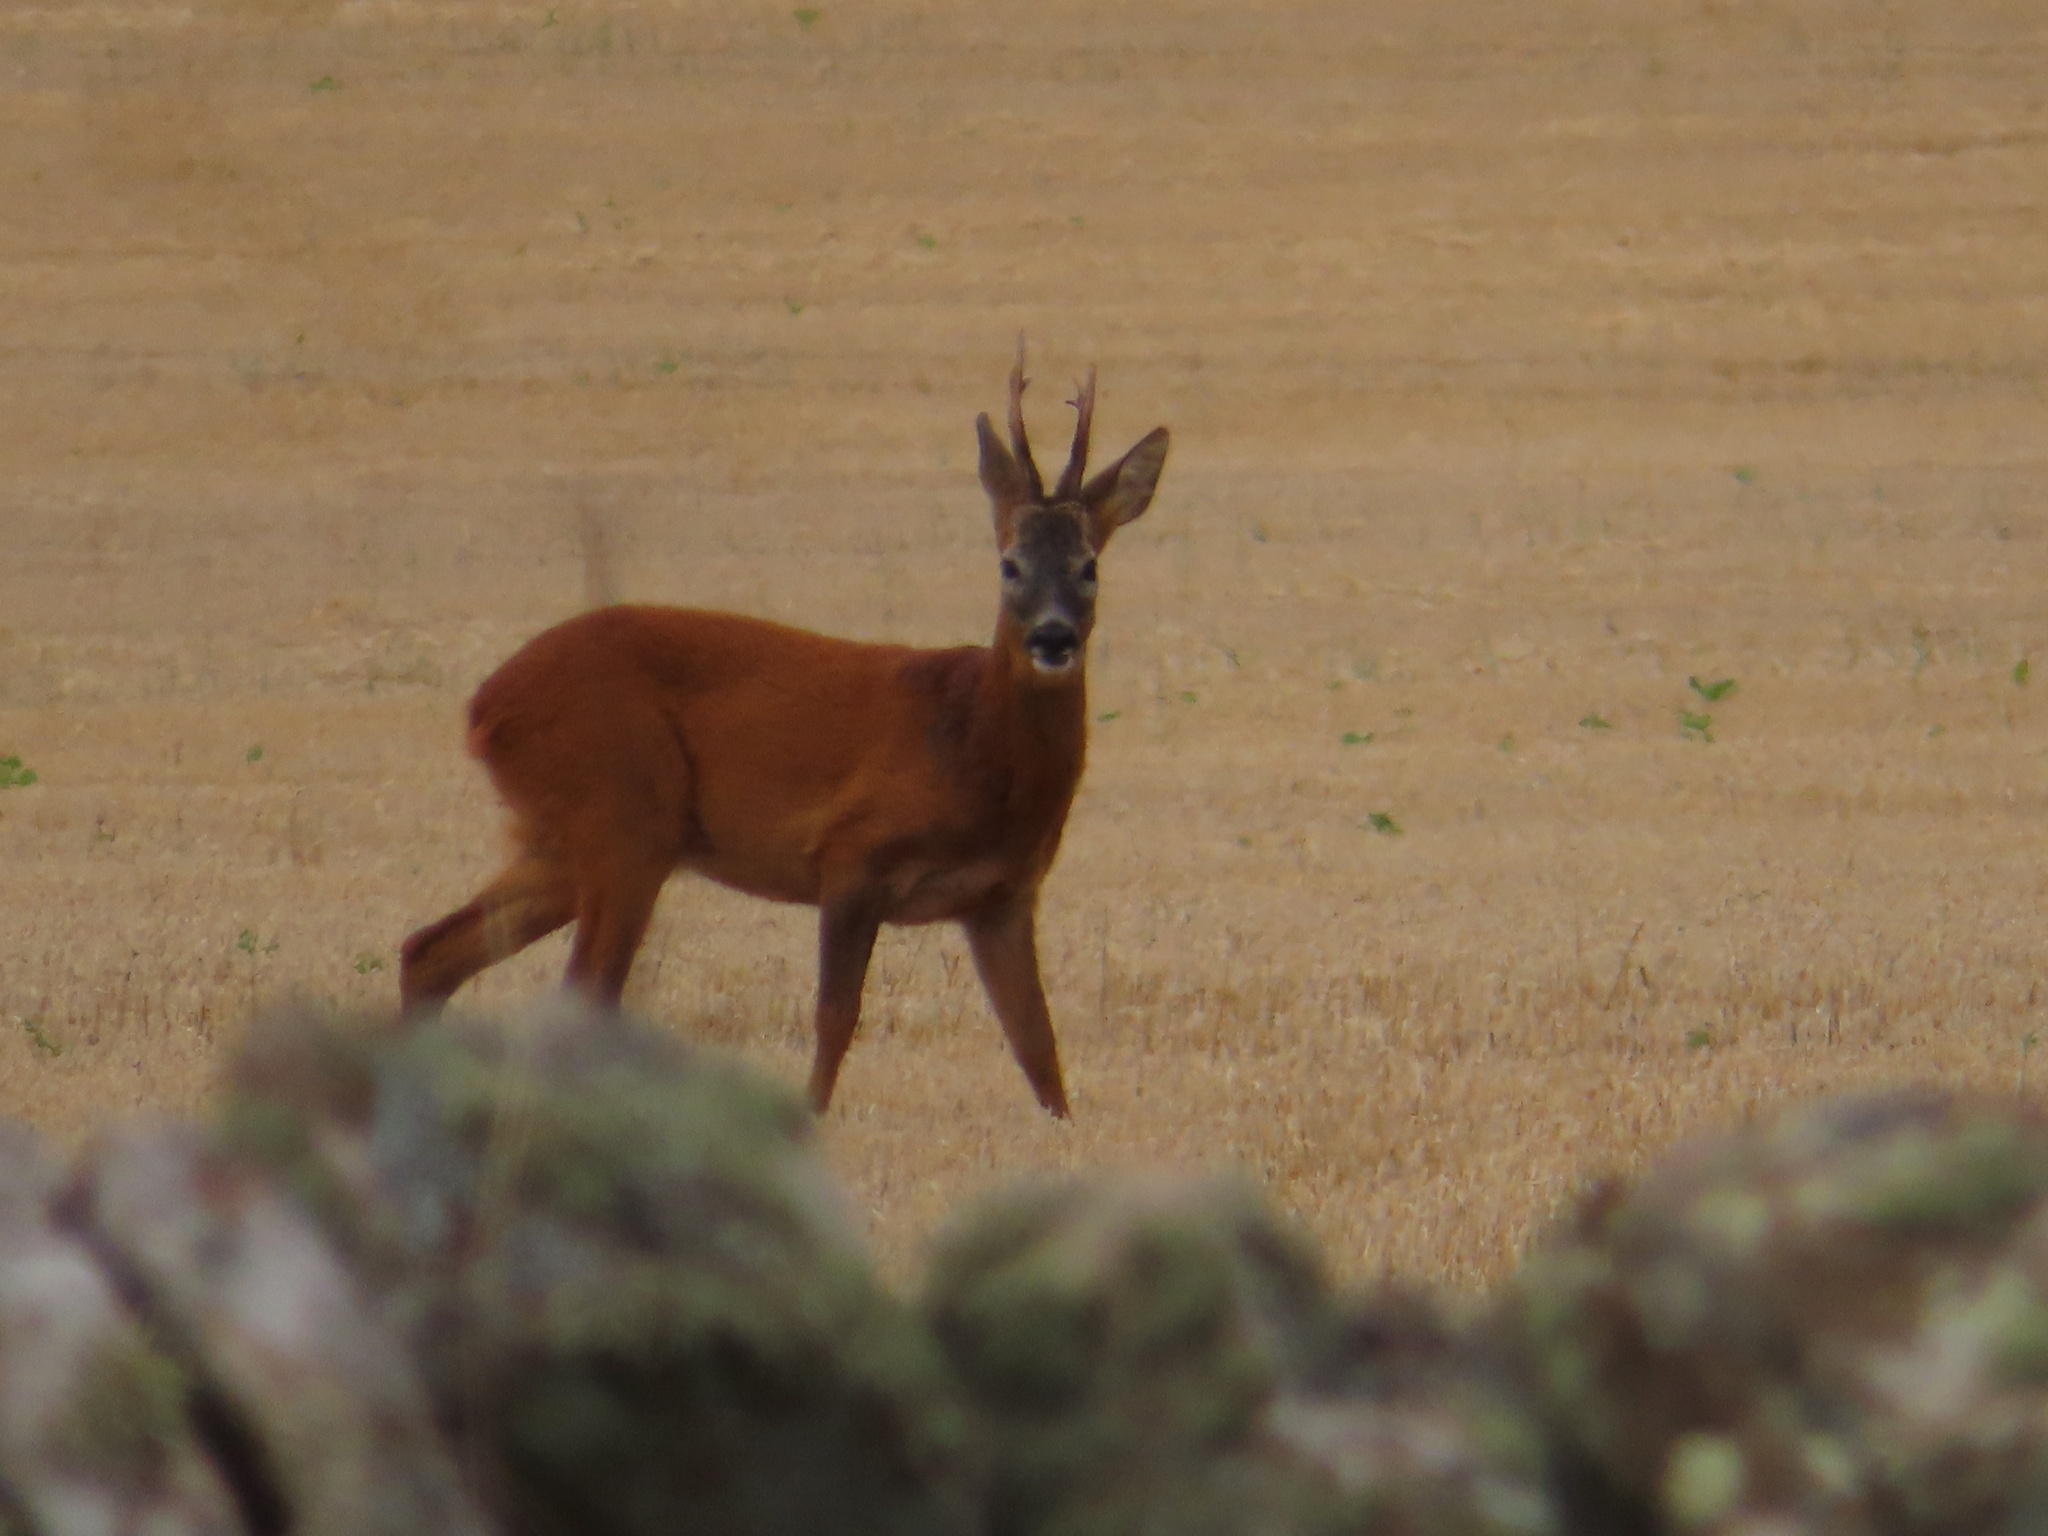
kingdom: Animalia
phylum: Chordata
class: Mammalia
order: Artiodactyla
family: Cervidae
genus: Capreolus
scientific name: Capreolus capreolus
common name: Western roe deer
